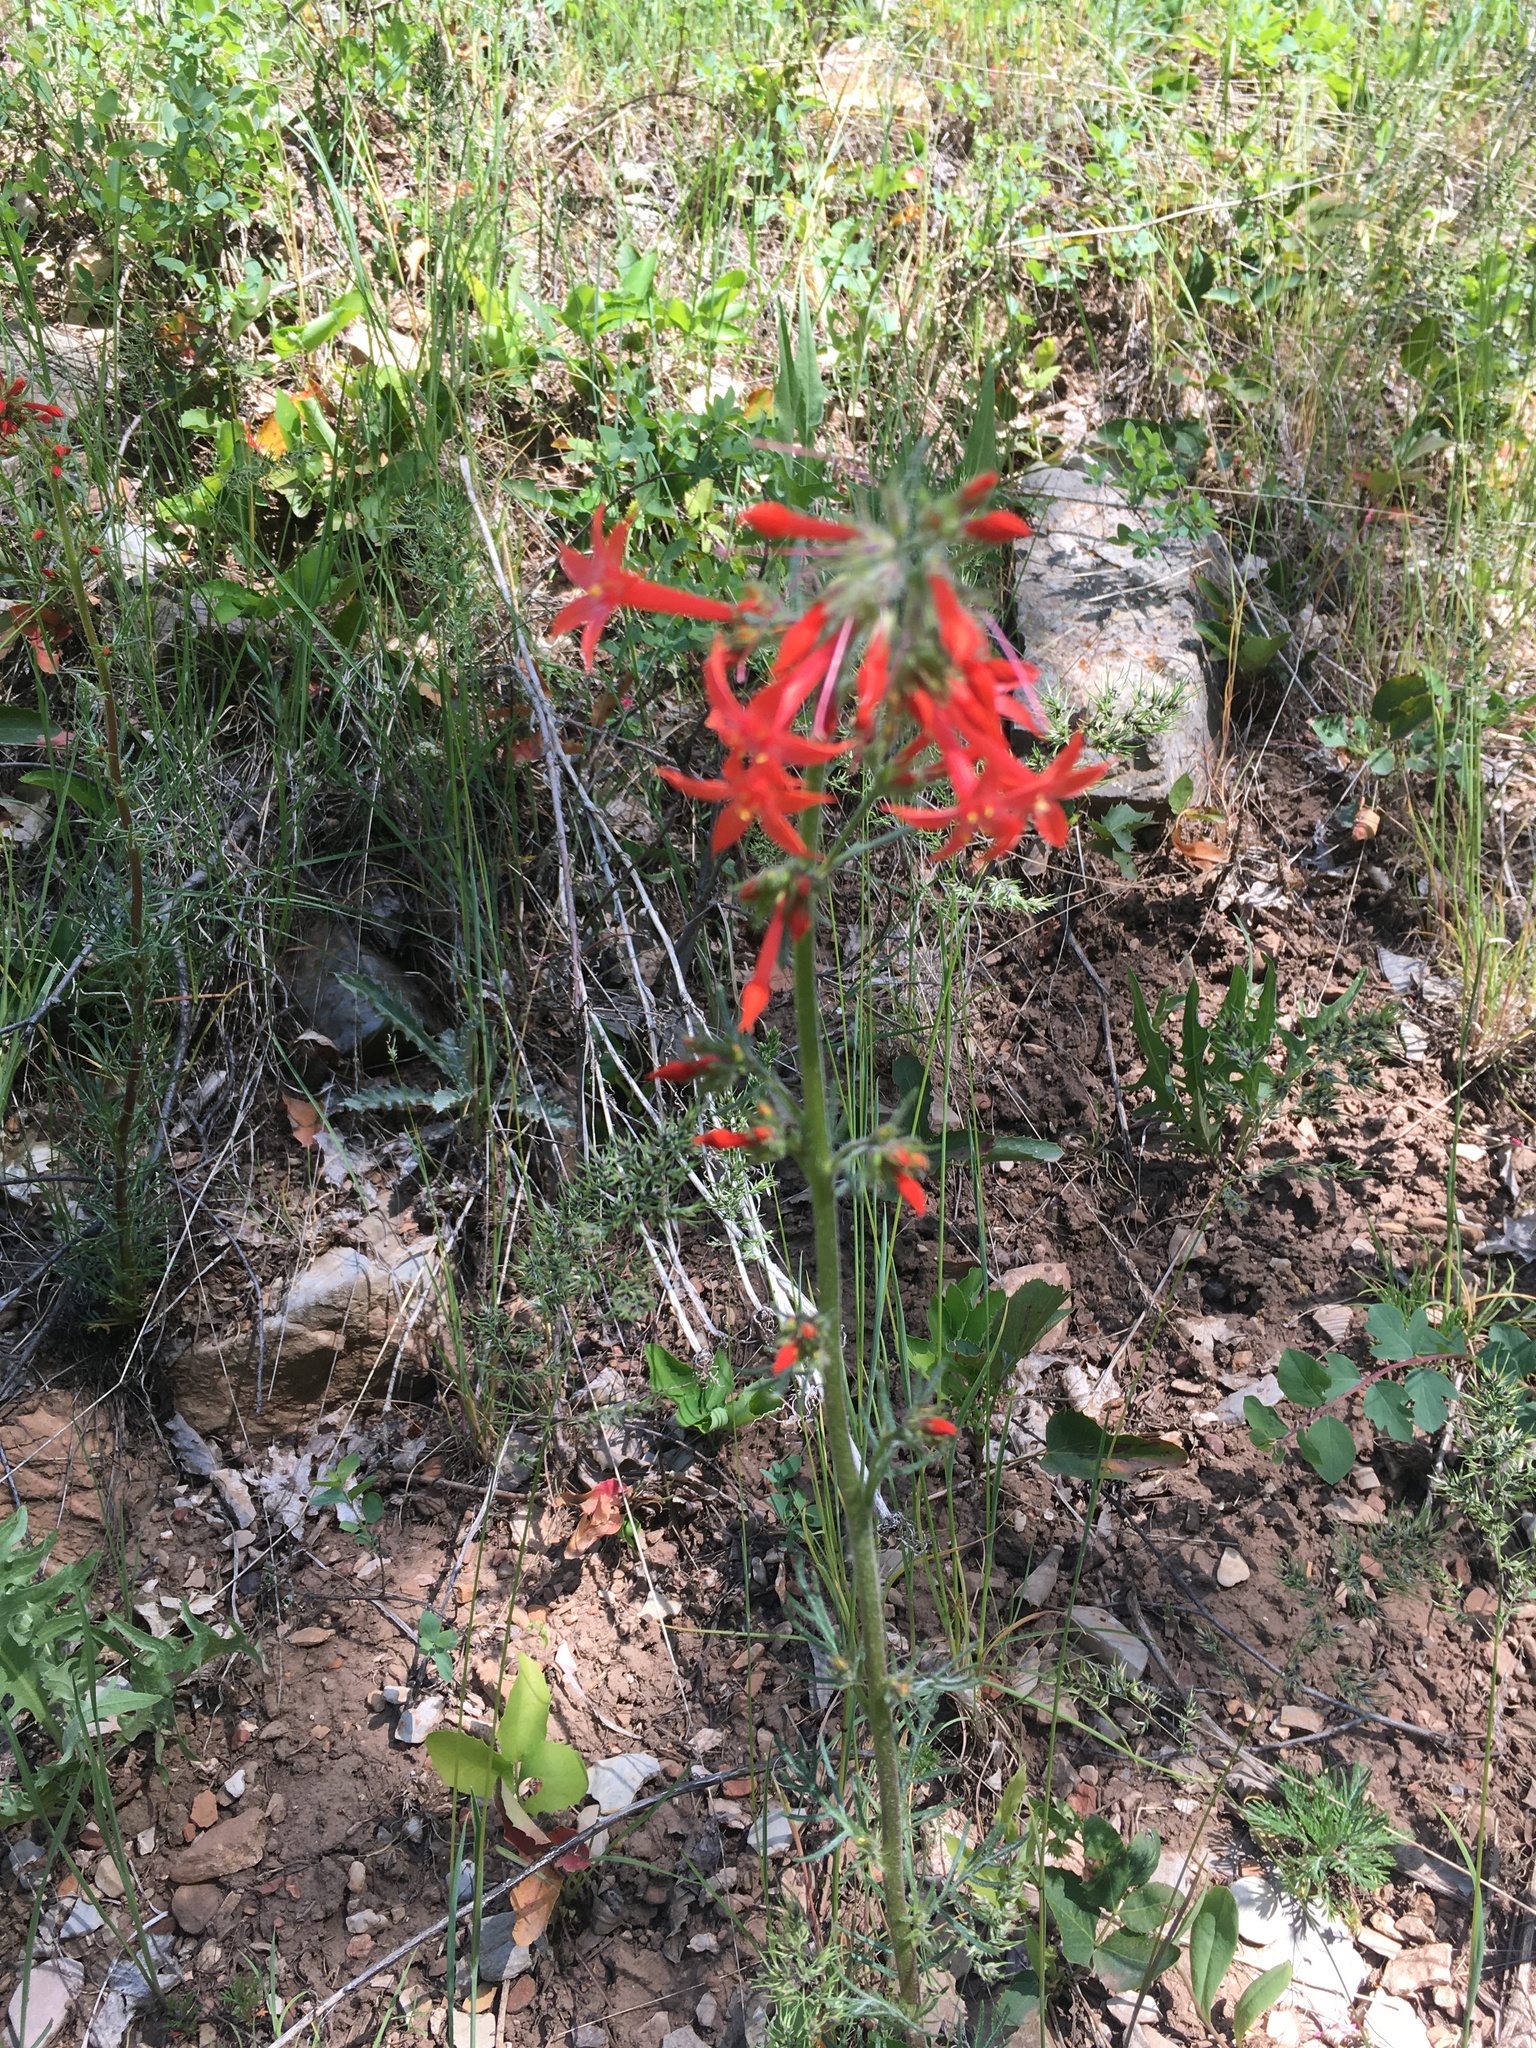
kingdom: Plantae
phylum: Tracheophyta
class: Magnoliopsida
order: Ericales
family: Polemoniaceae
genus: Ipomopsis
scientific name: Ipomopsis aggregata
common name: Scarlet gilia
